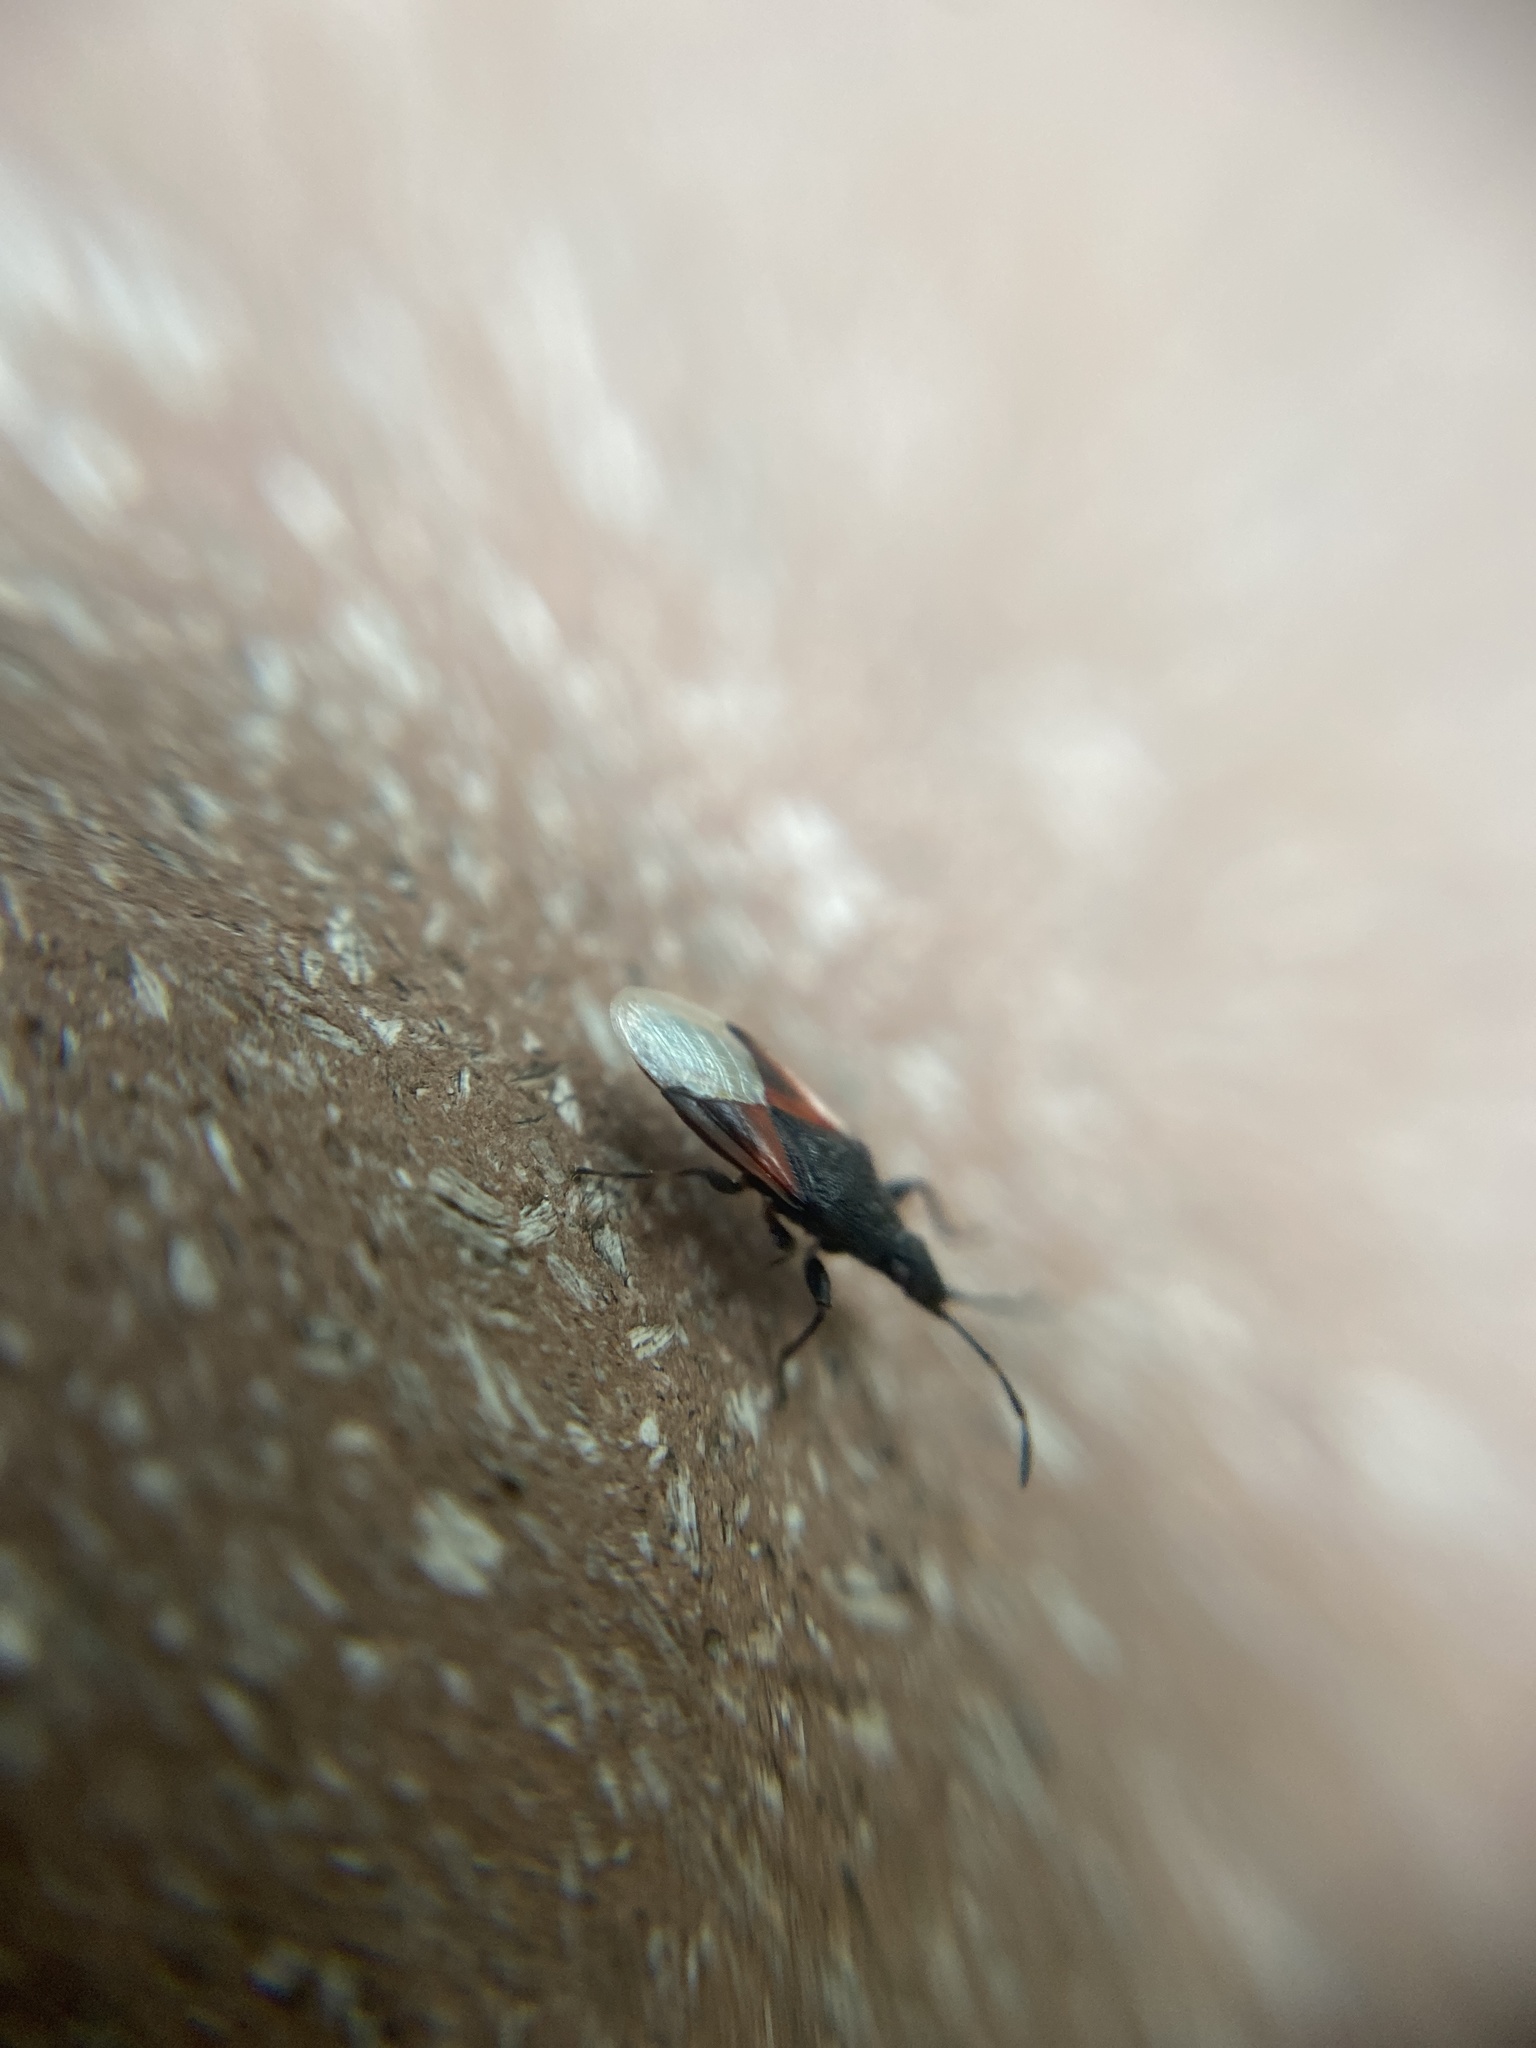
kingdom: Animalia
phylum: Arthropoda
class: Insecta
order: Hemiptera
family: Oxycarenidae
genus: Oxycarenus
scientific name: Oxycarenus lavaterae
